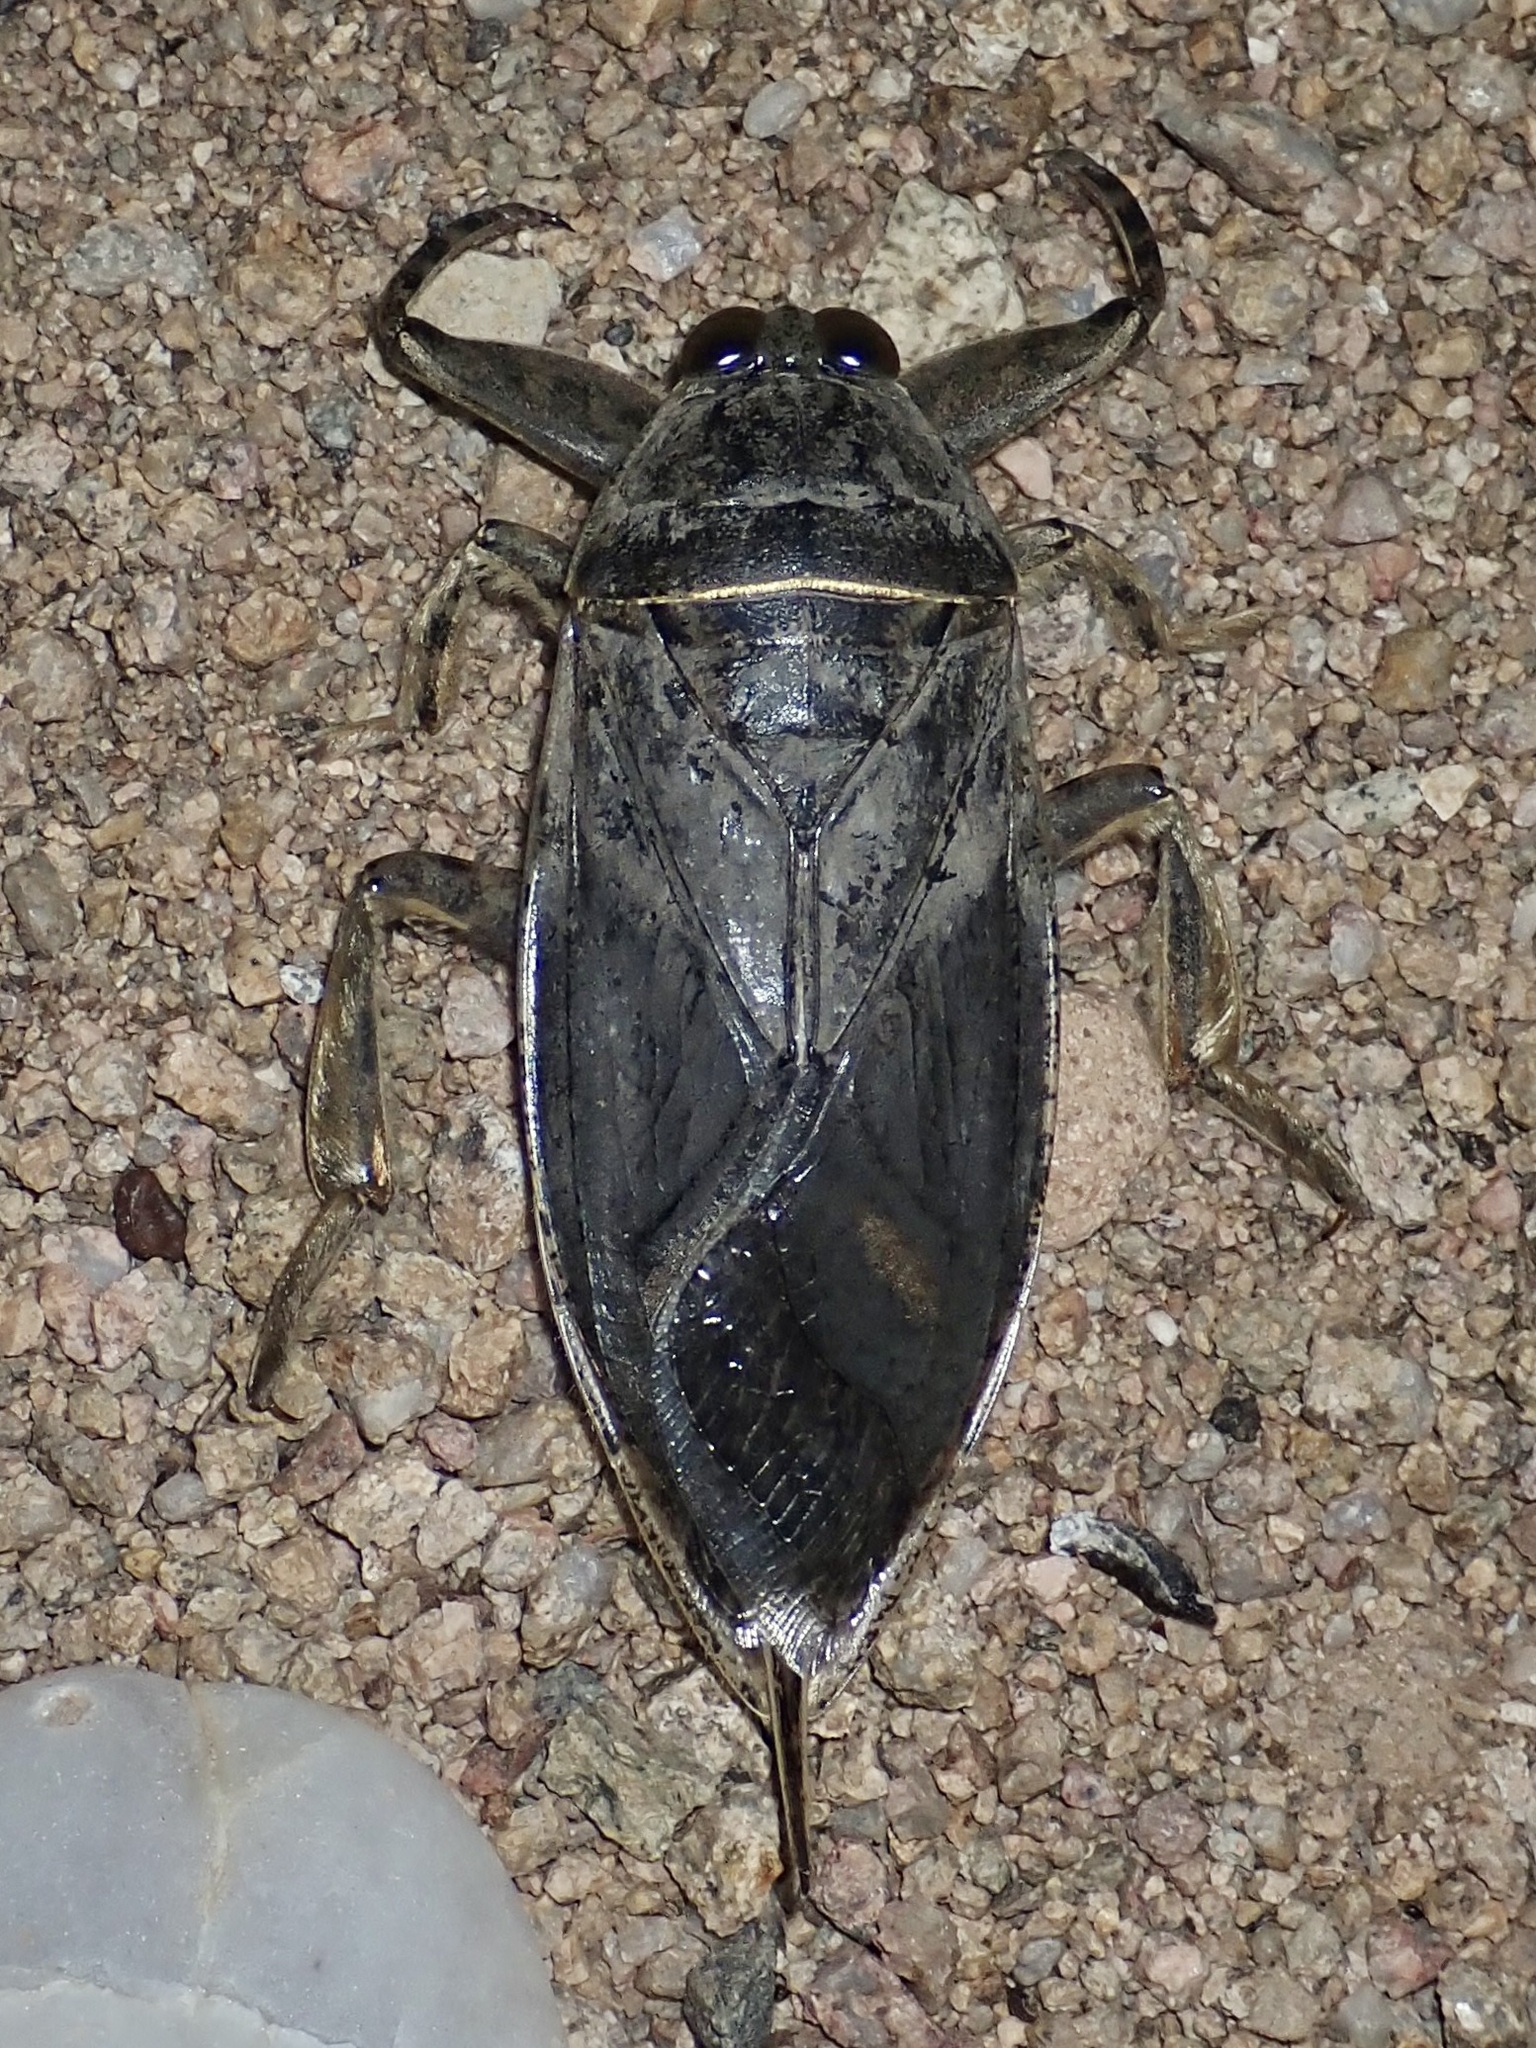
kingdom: Animalia
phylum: Arthropoda
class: Insecta
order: Hemiptera
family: Belostomatidae
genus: Lethocerus
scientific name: Lethocerus medius
